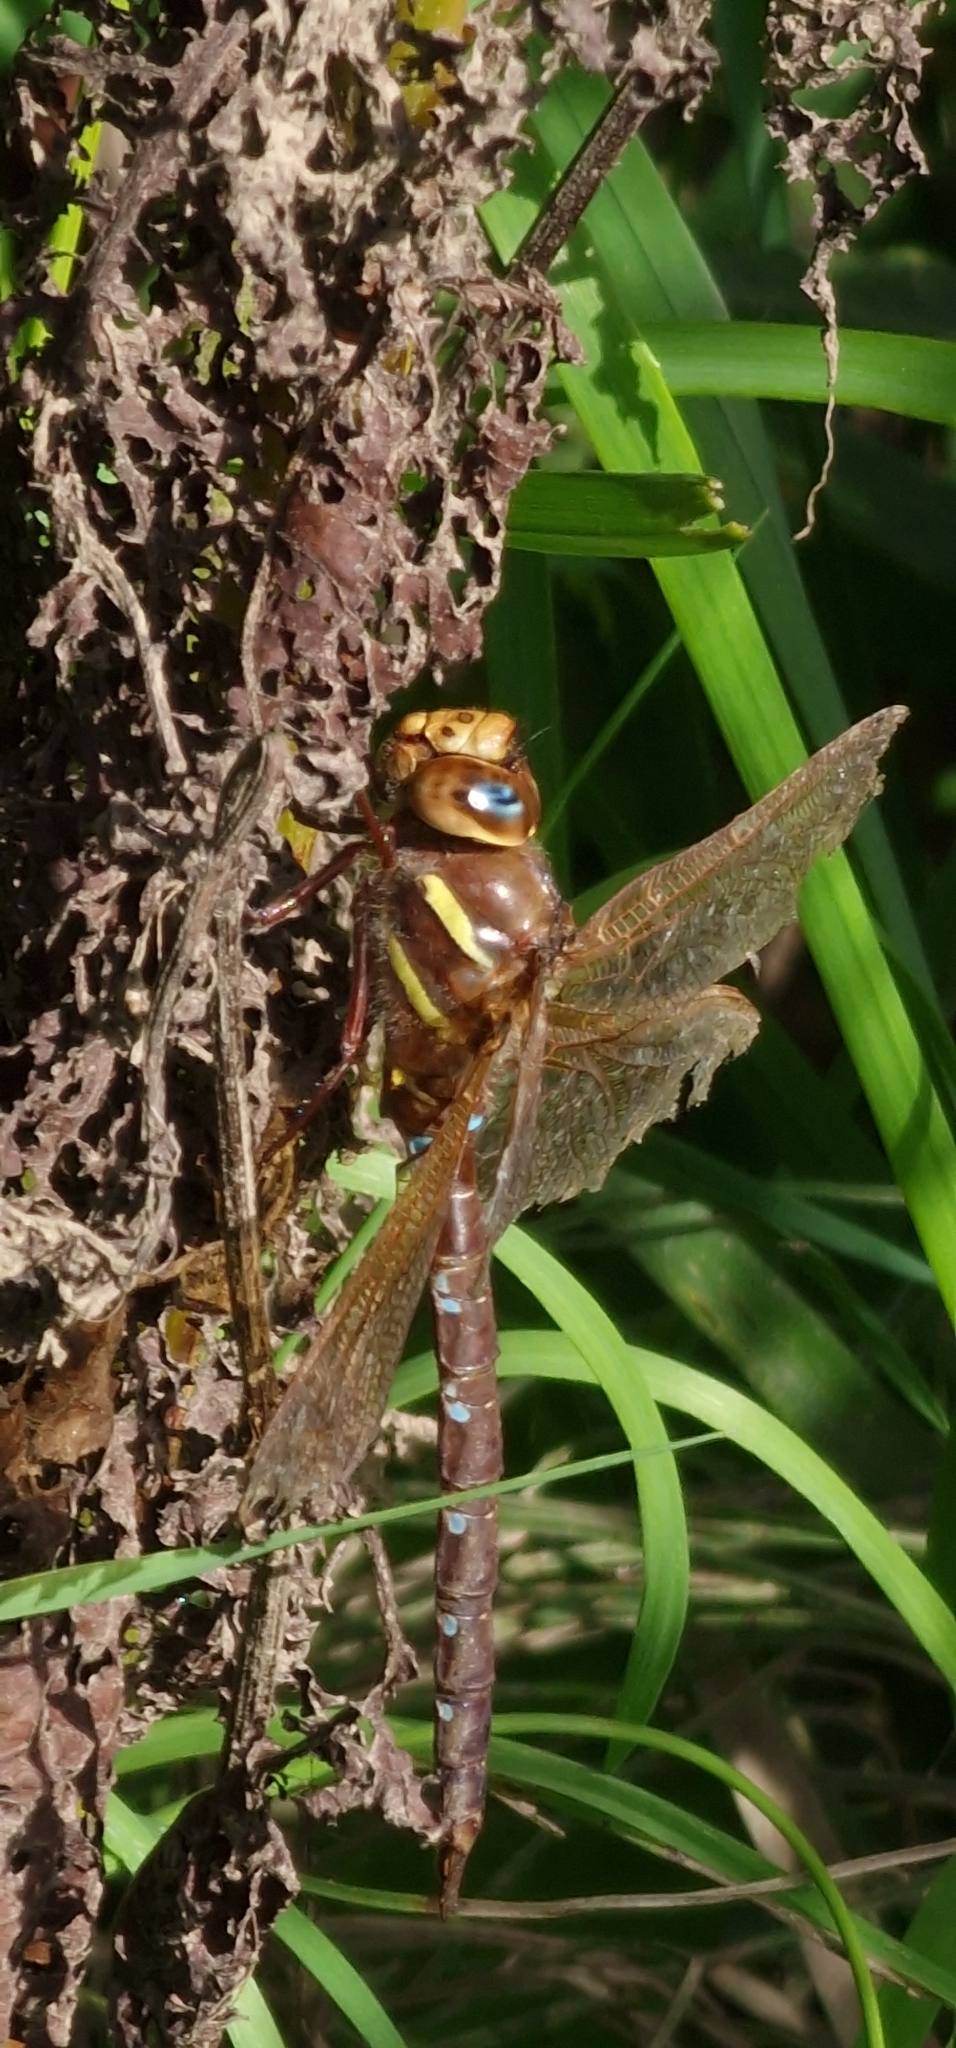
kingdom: Animalia
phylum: Arthropoda
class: Insecta
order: Odonata
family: Aeshnidae
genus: Aeshna
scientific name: Aeshna grandis
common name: Brown hawker
